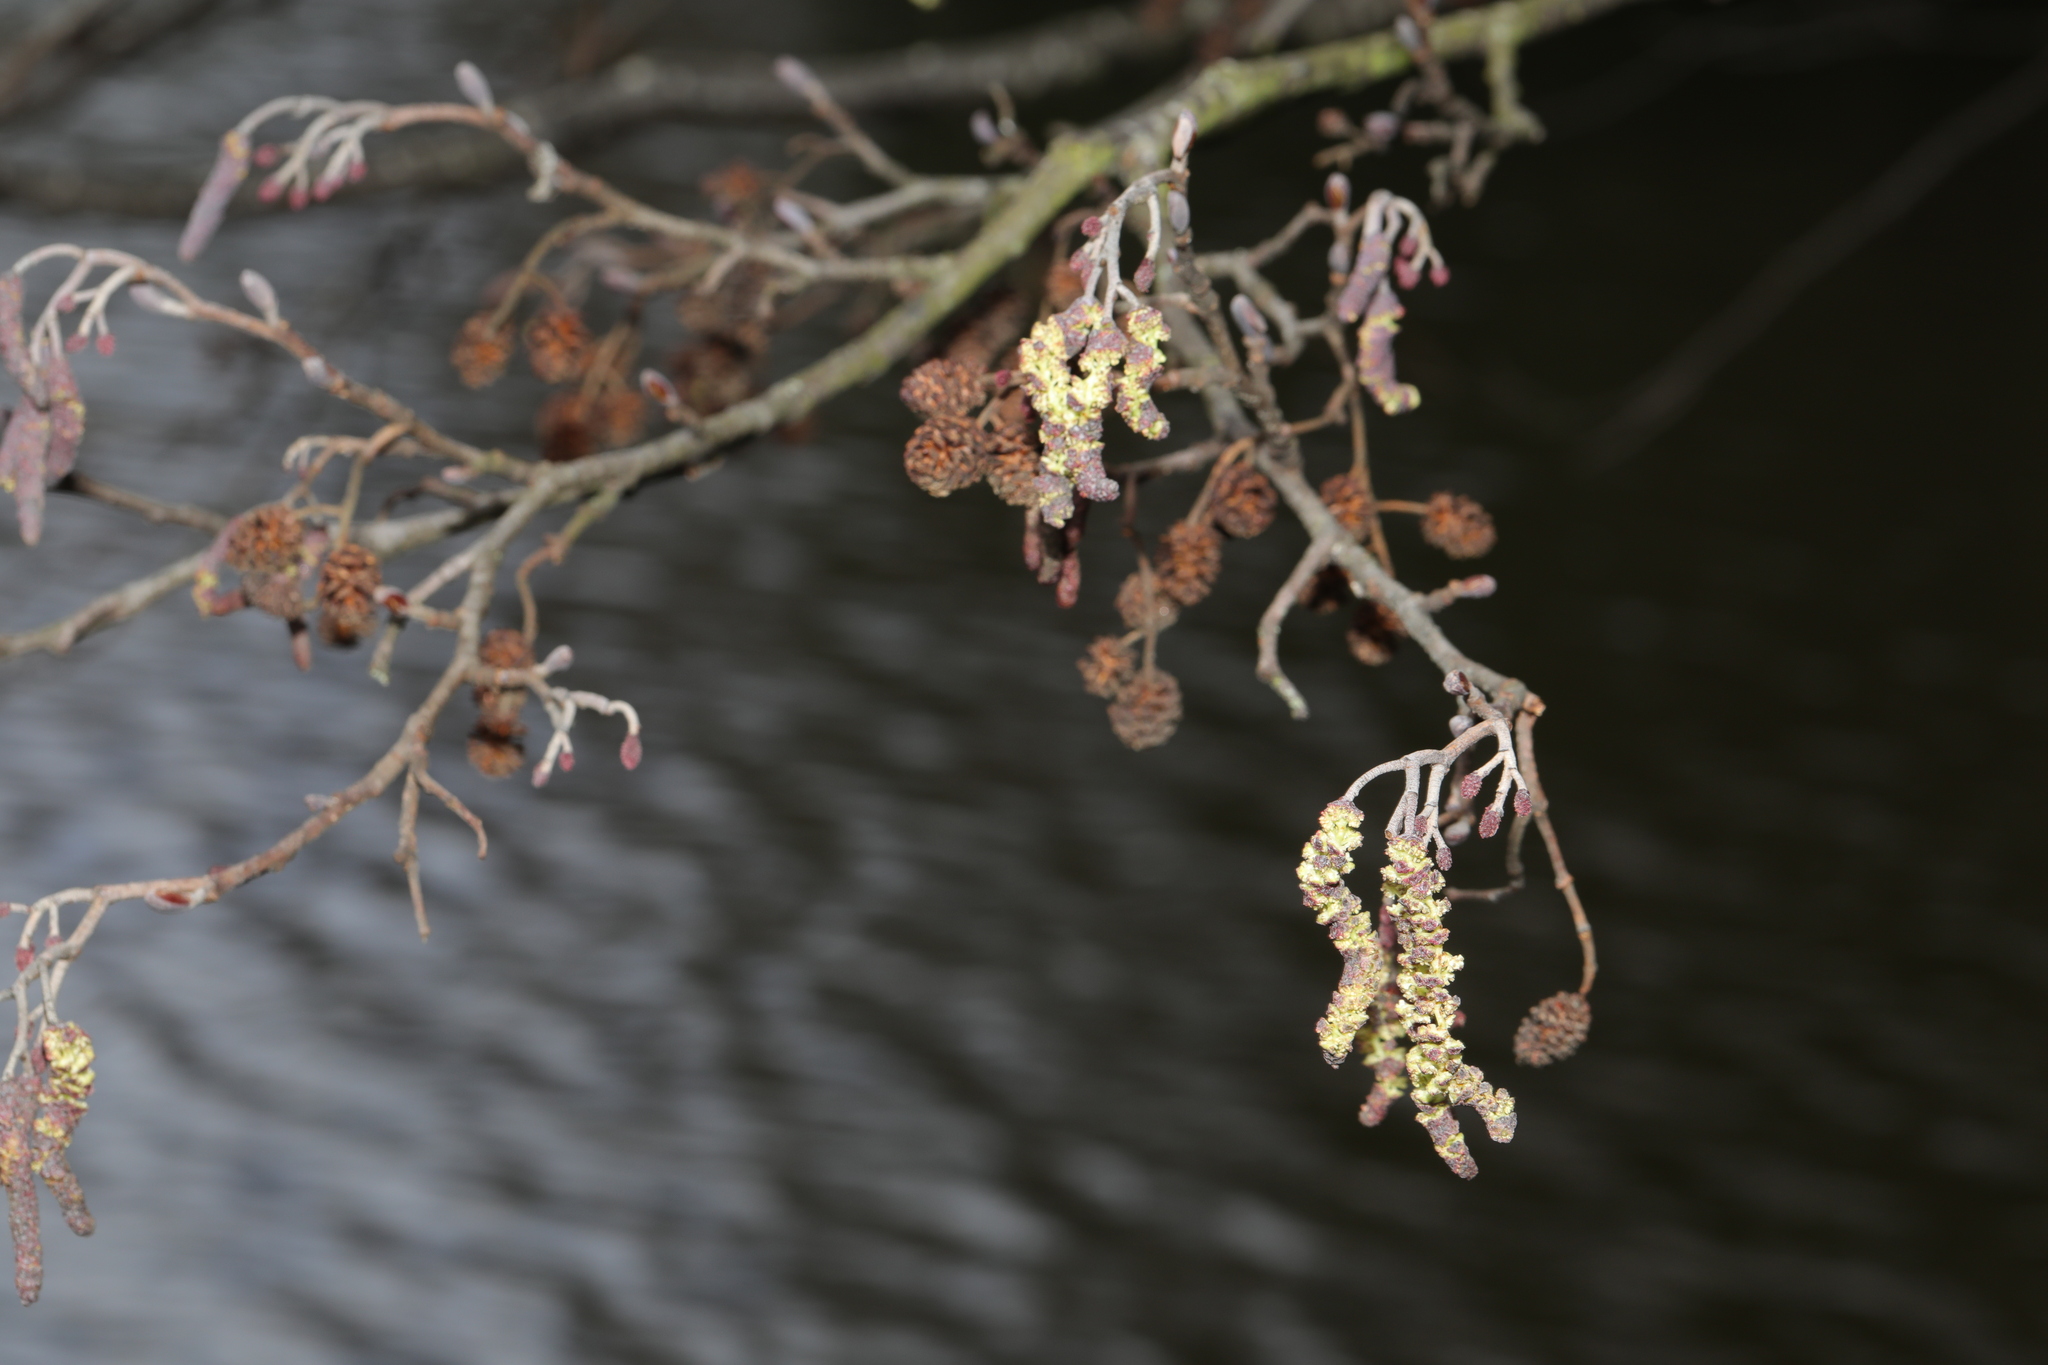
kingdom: Plantae
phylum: Tracheophyta
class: Magnoliopsida
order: Fagales
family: Betulaceae
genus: Alnus
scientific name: Alnus glutinosa
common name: Black alder
